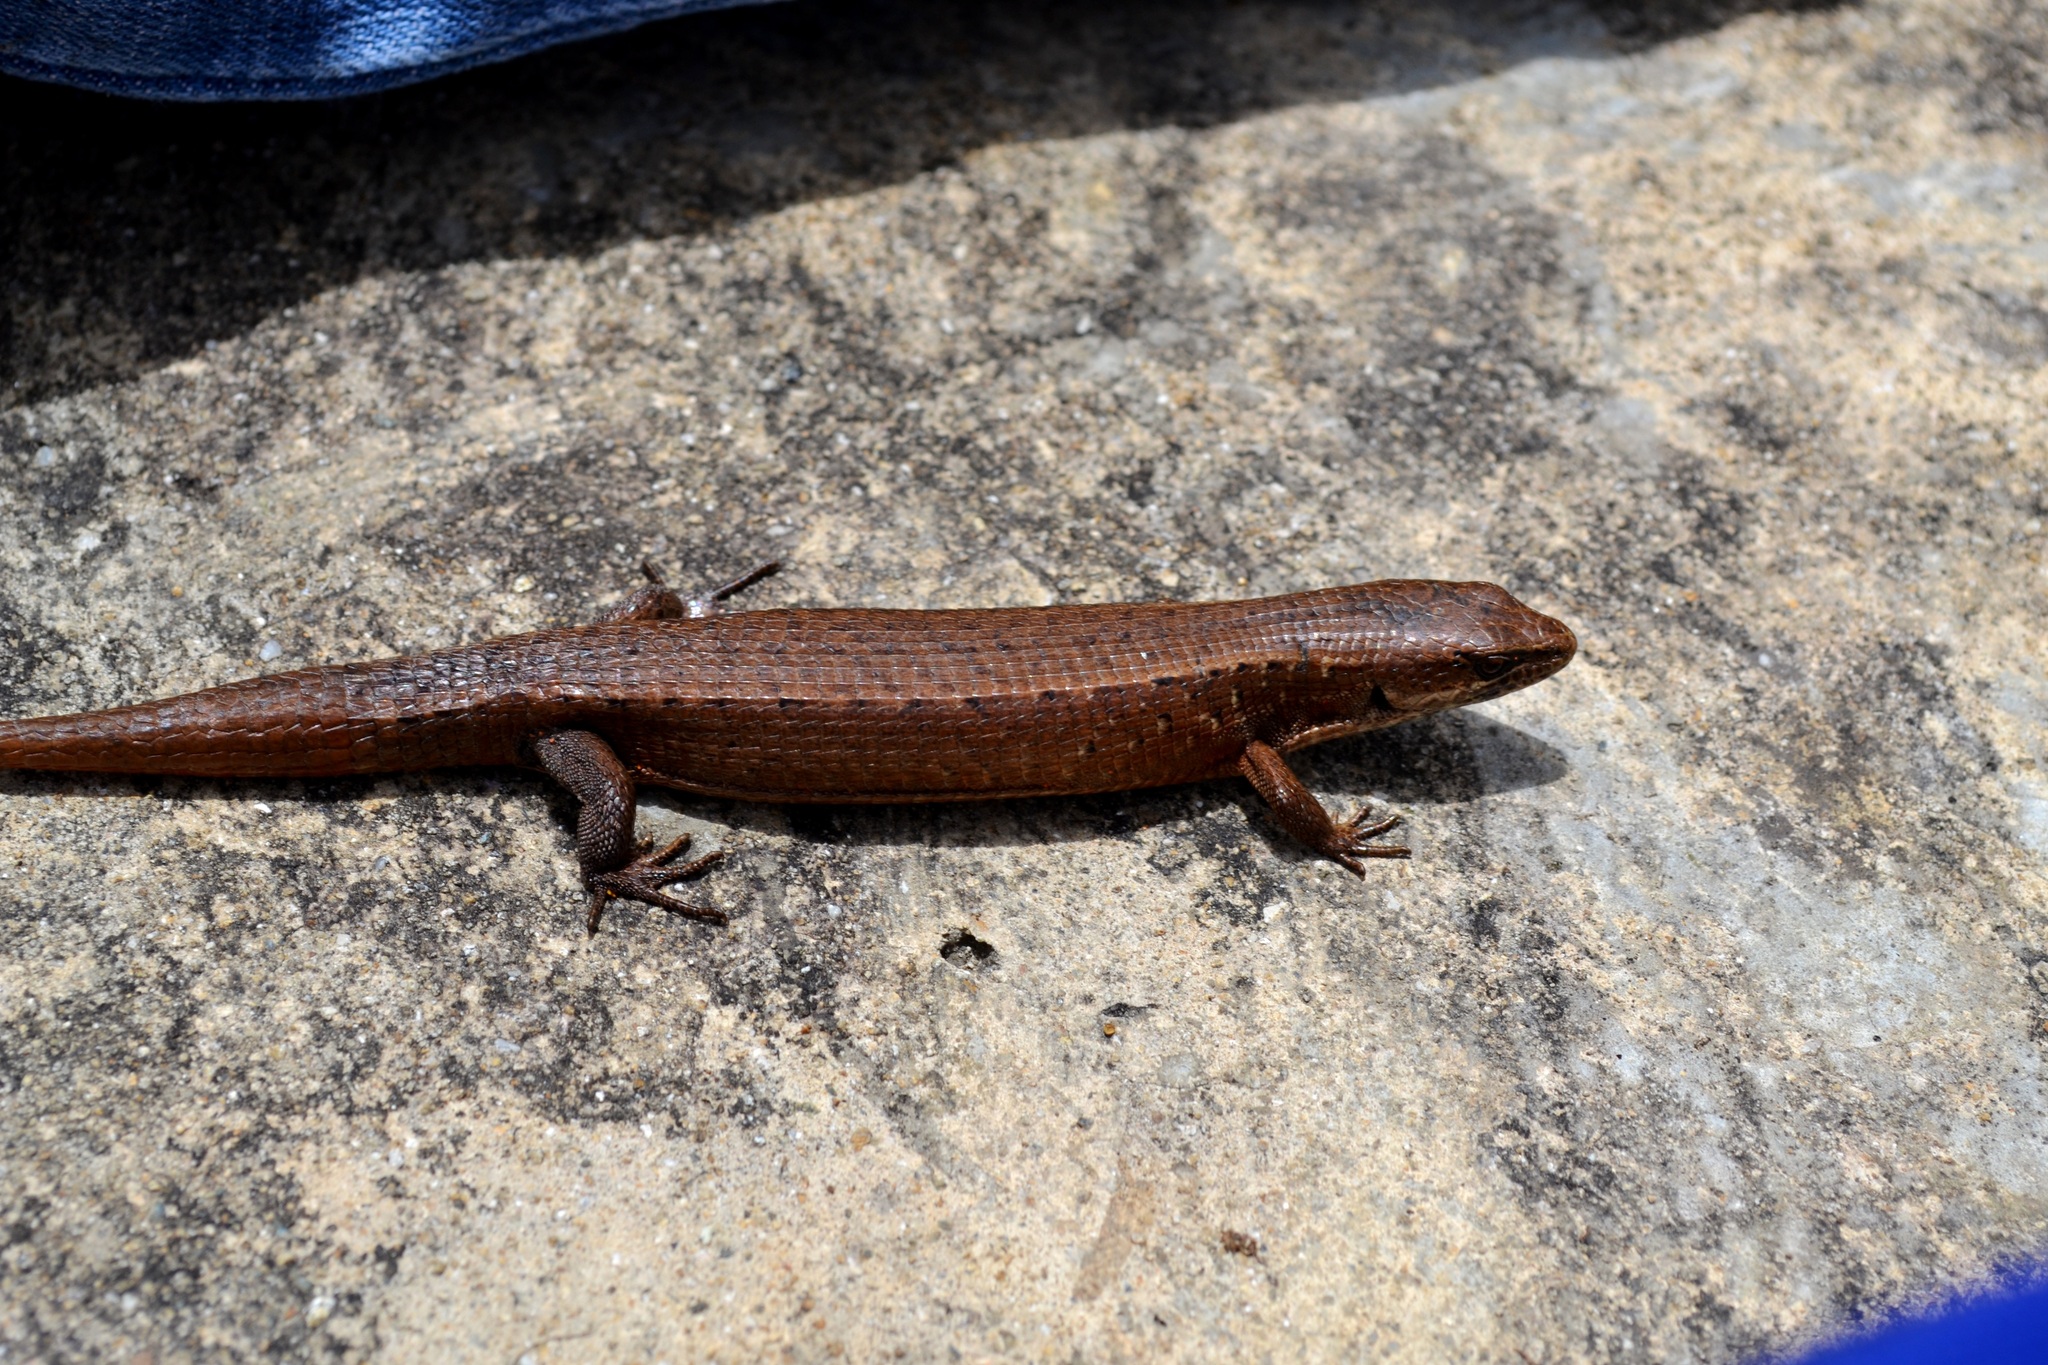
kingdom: Animalia
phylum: Chordata
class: Squamata
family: Anguidae
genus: Abronia
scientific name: Abronia moreletii
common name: Morelet's alligator lizard
